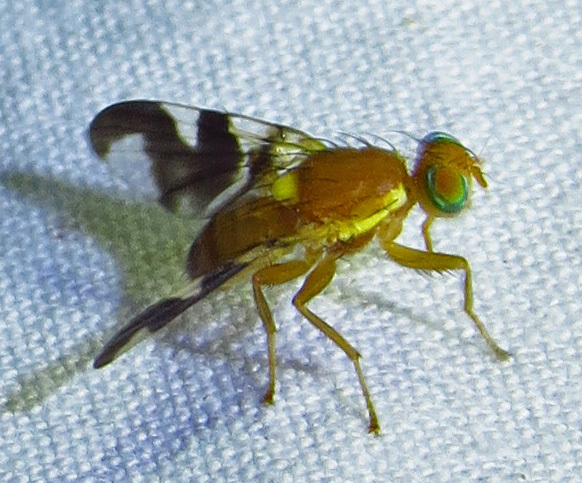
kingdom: Animalia
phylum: Arthropoda
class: Insecta
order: Diptera
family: Tephritidae
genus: Rhagoletis
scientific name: Rhagoletis suavis
